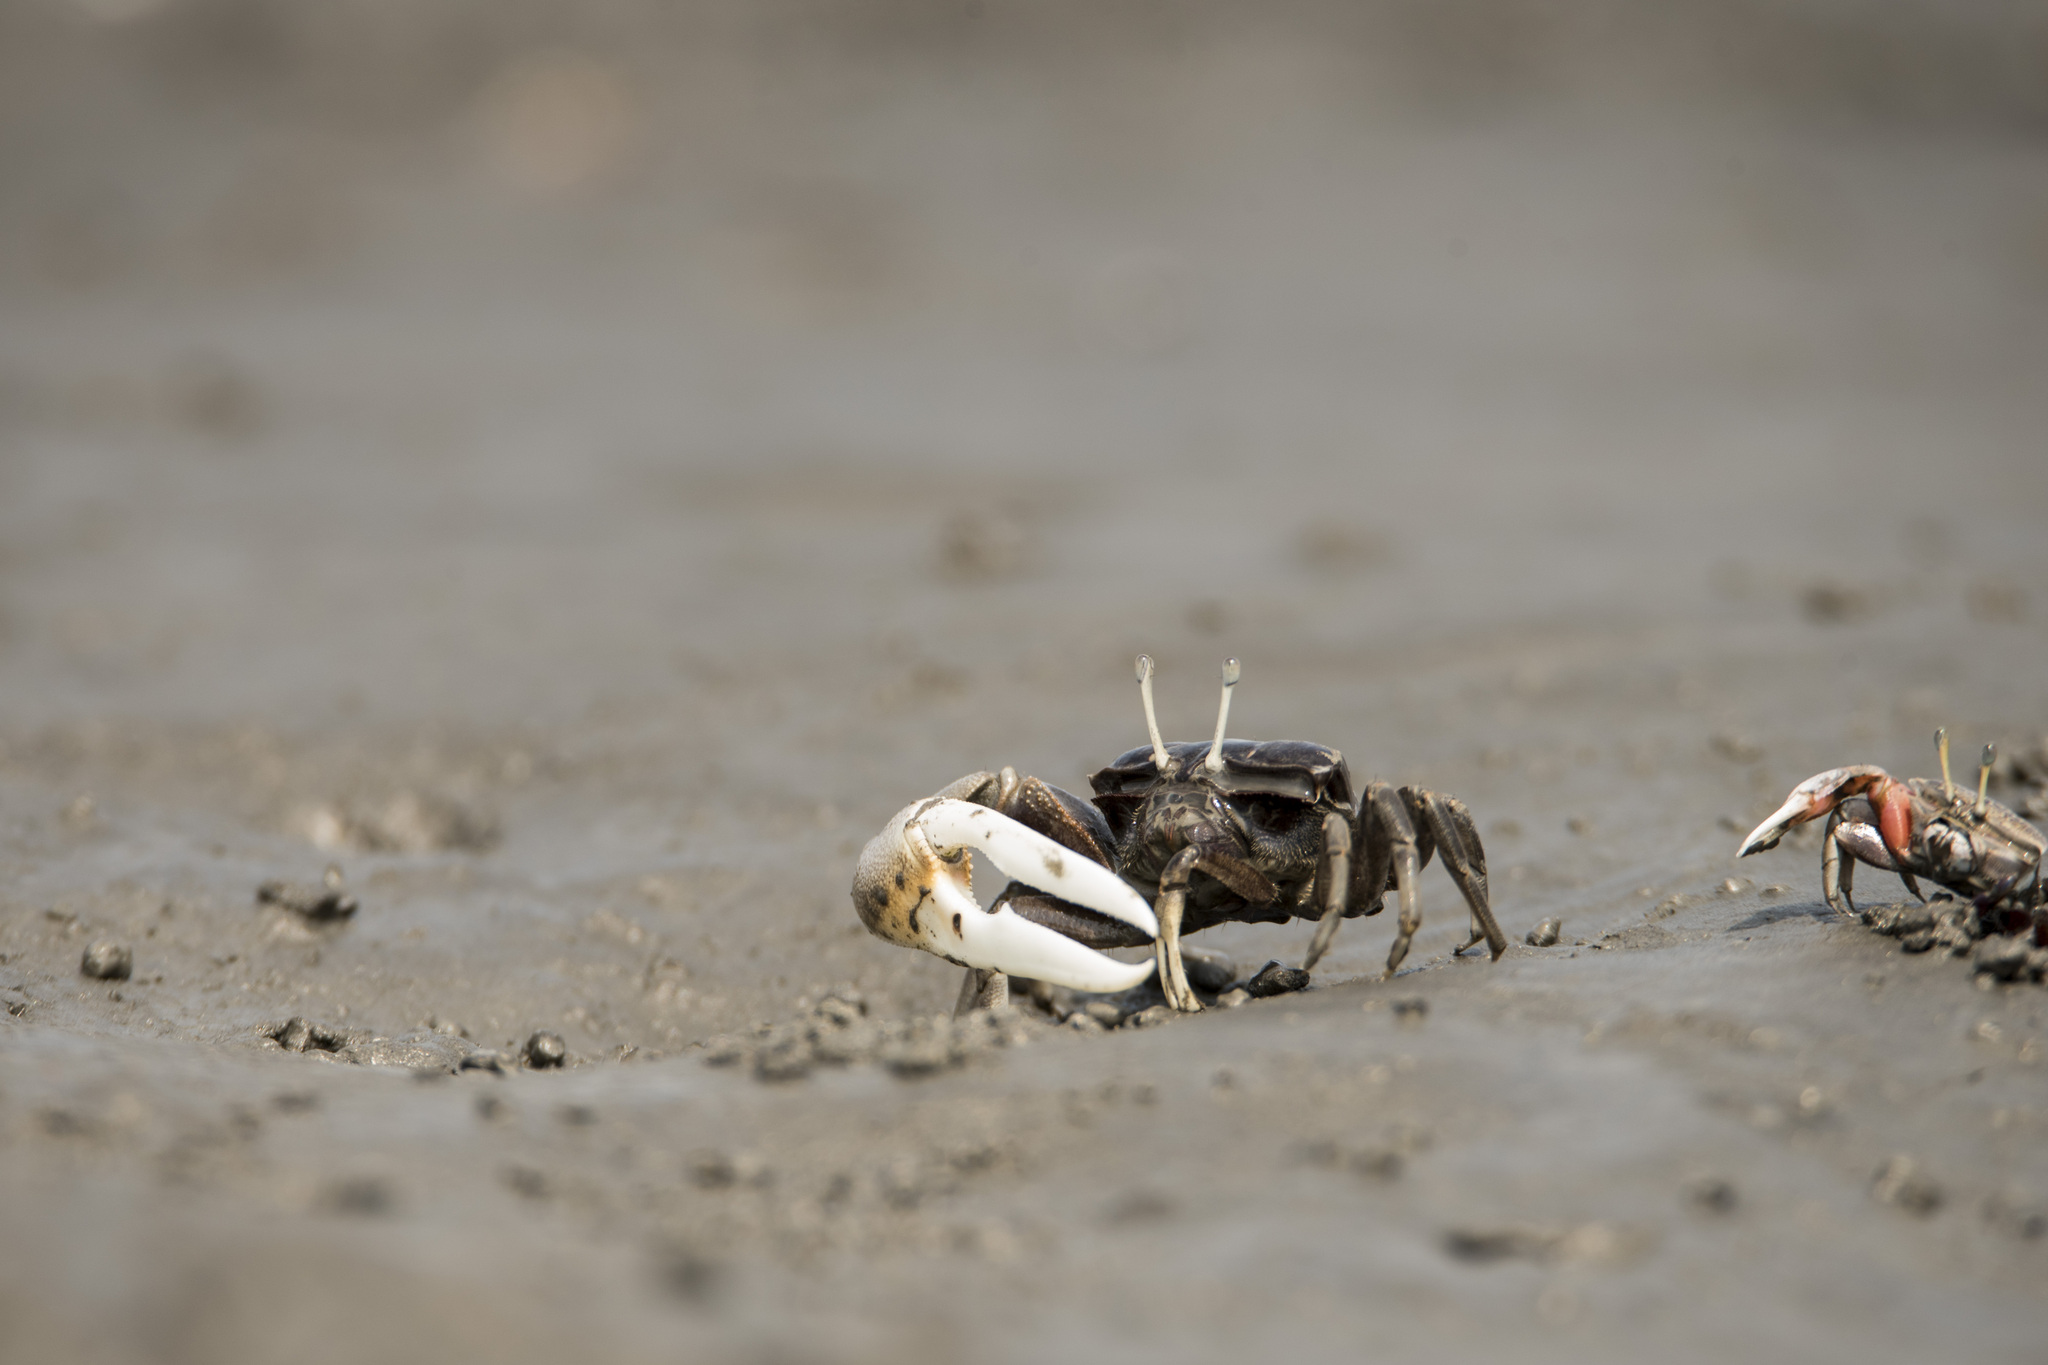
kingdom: Animalia
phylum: Arthropoda
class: Malacostraca
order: Decapoda
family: Ocypodidae
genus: Xeruca
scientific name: Xeruca formosensis
